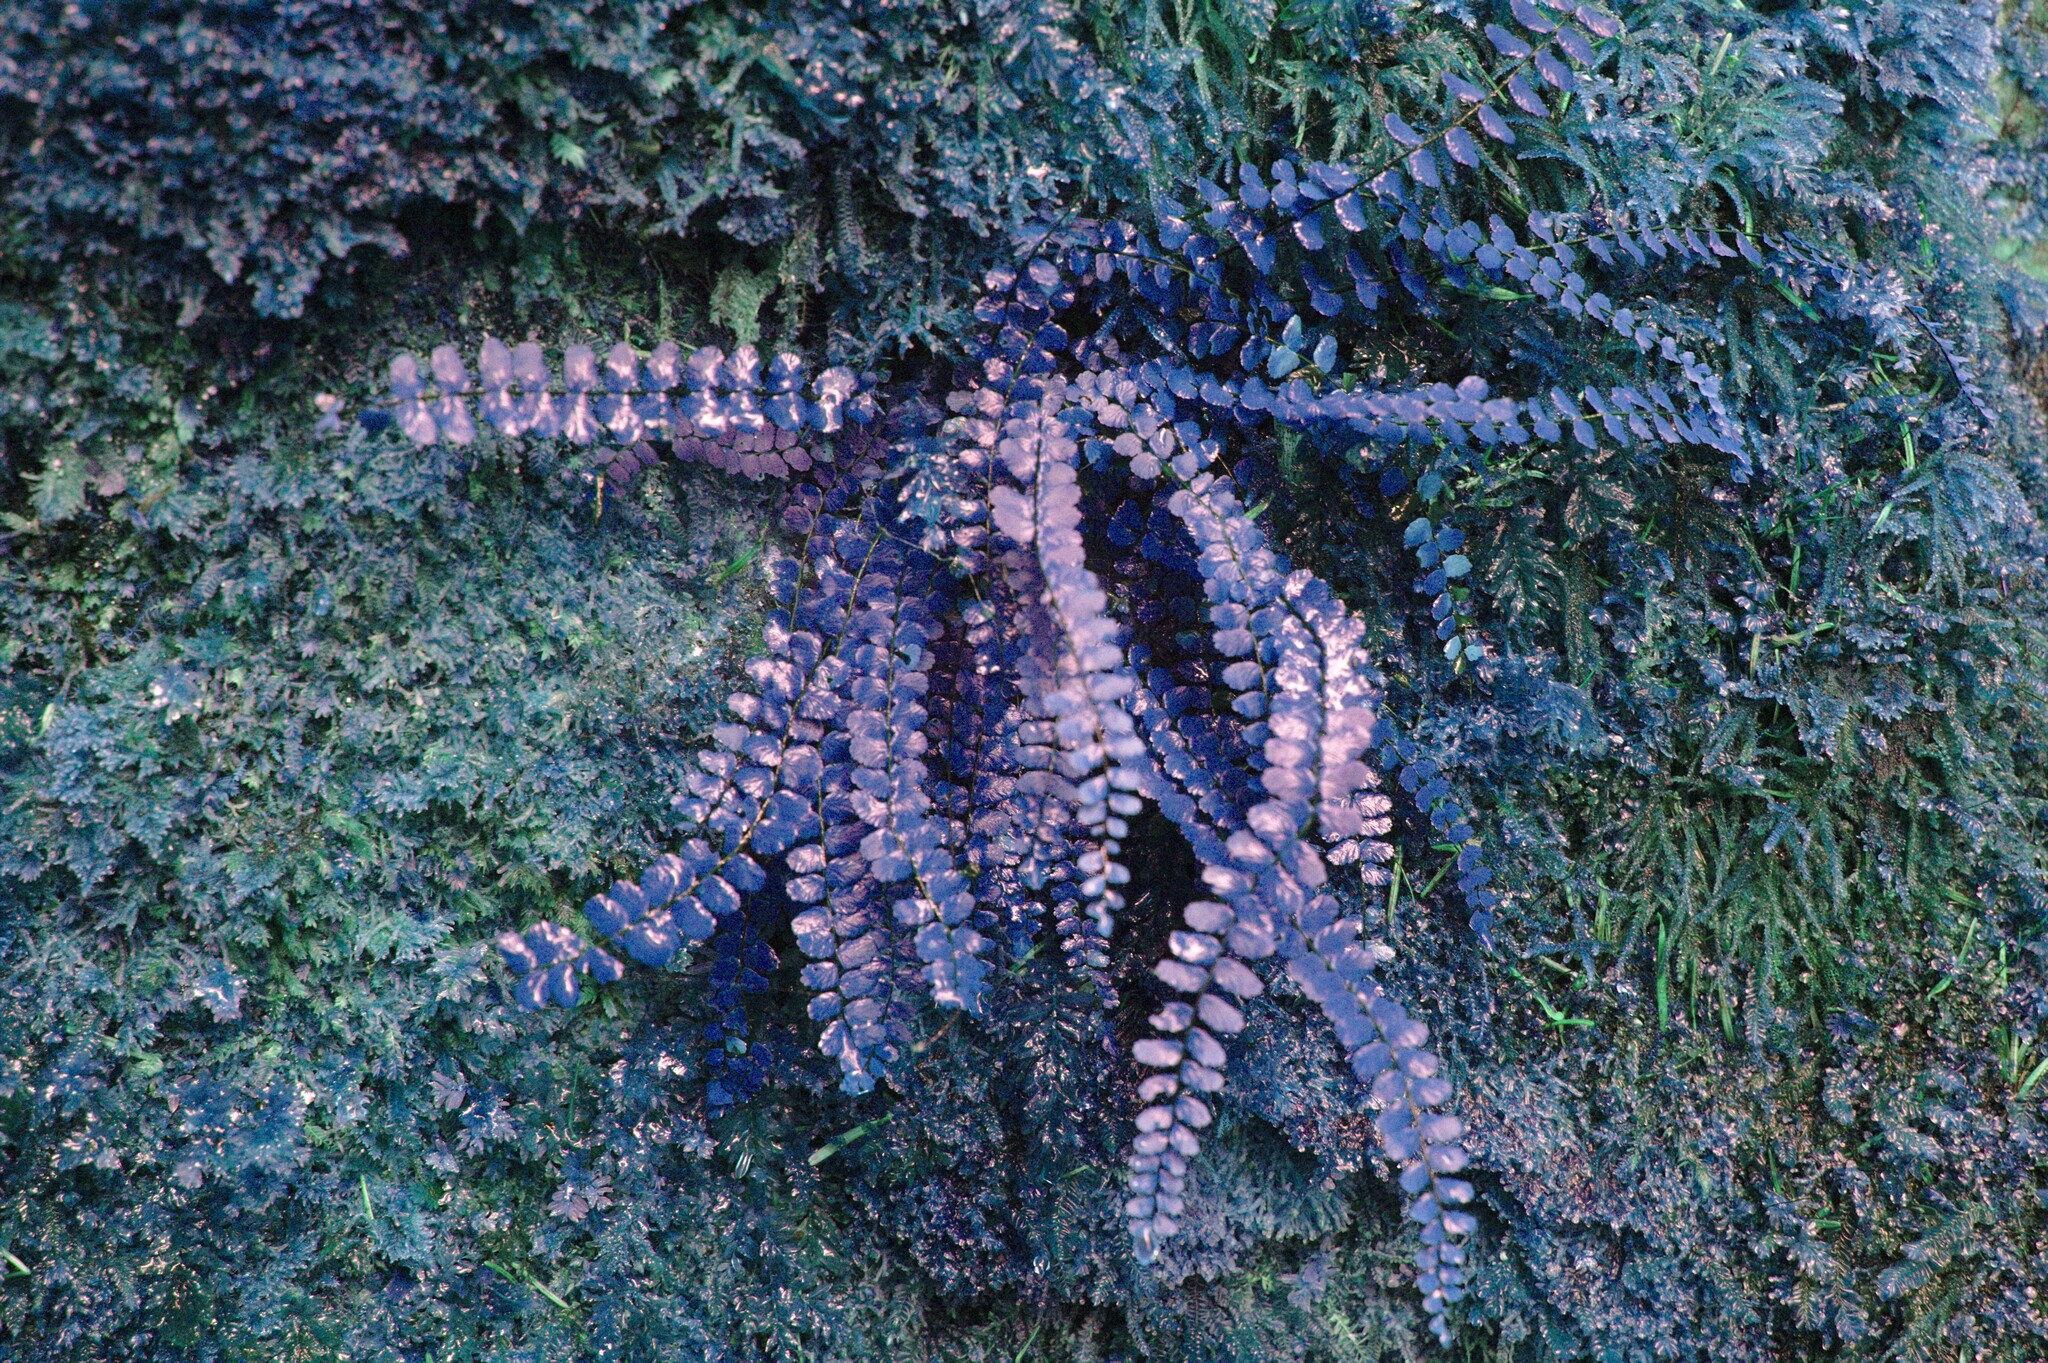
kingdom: Plantae
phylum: Tracheophyta
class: Polypodiopsida
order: Polypodiales
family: Aspleniaceae
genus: Asplenium
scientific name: Asplenium trichomanes
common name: Maidenhair spleenwort
